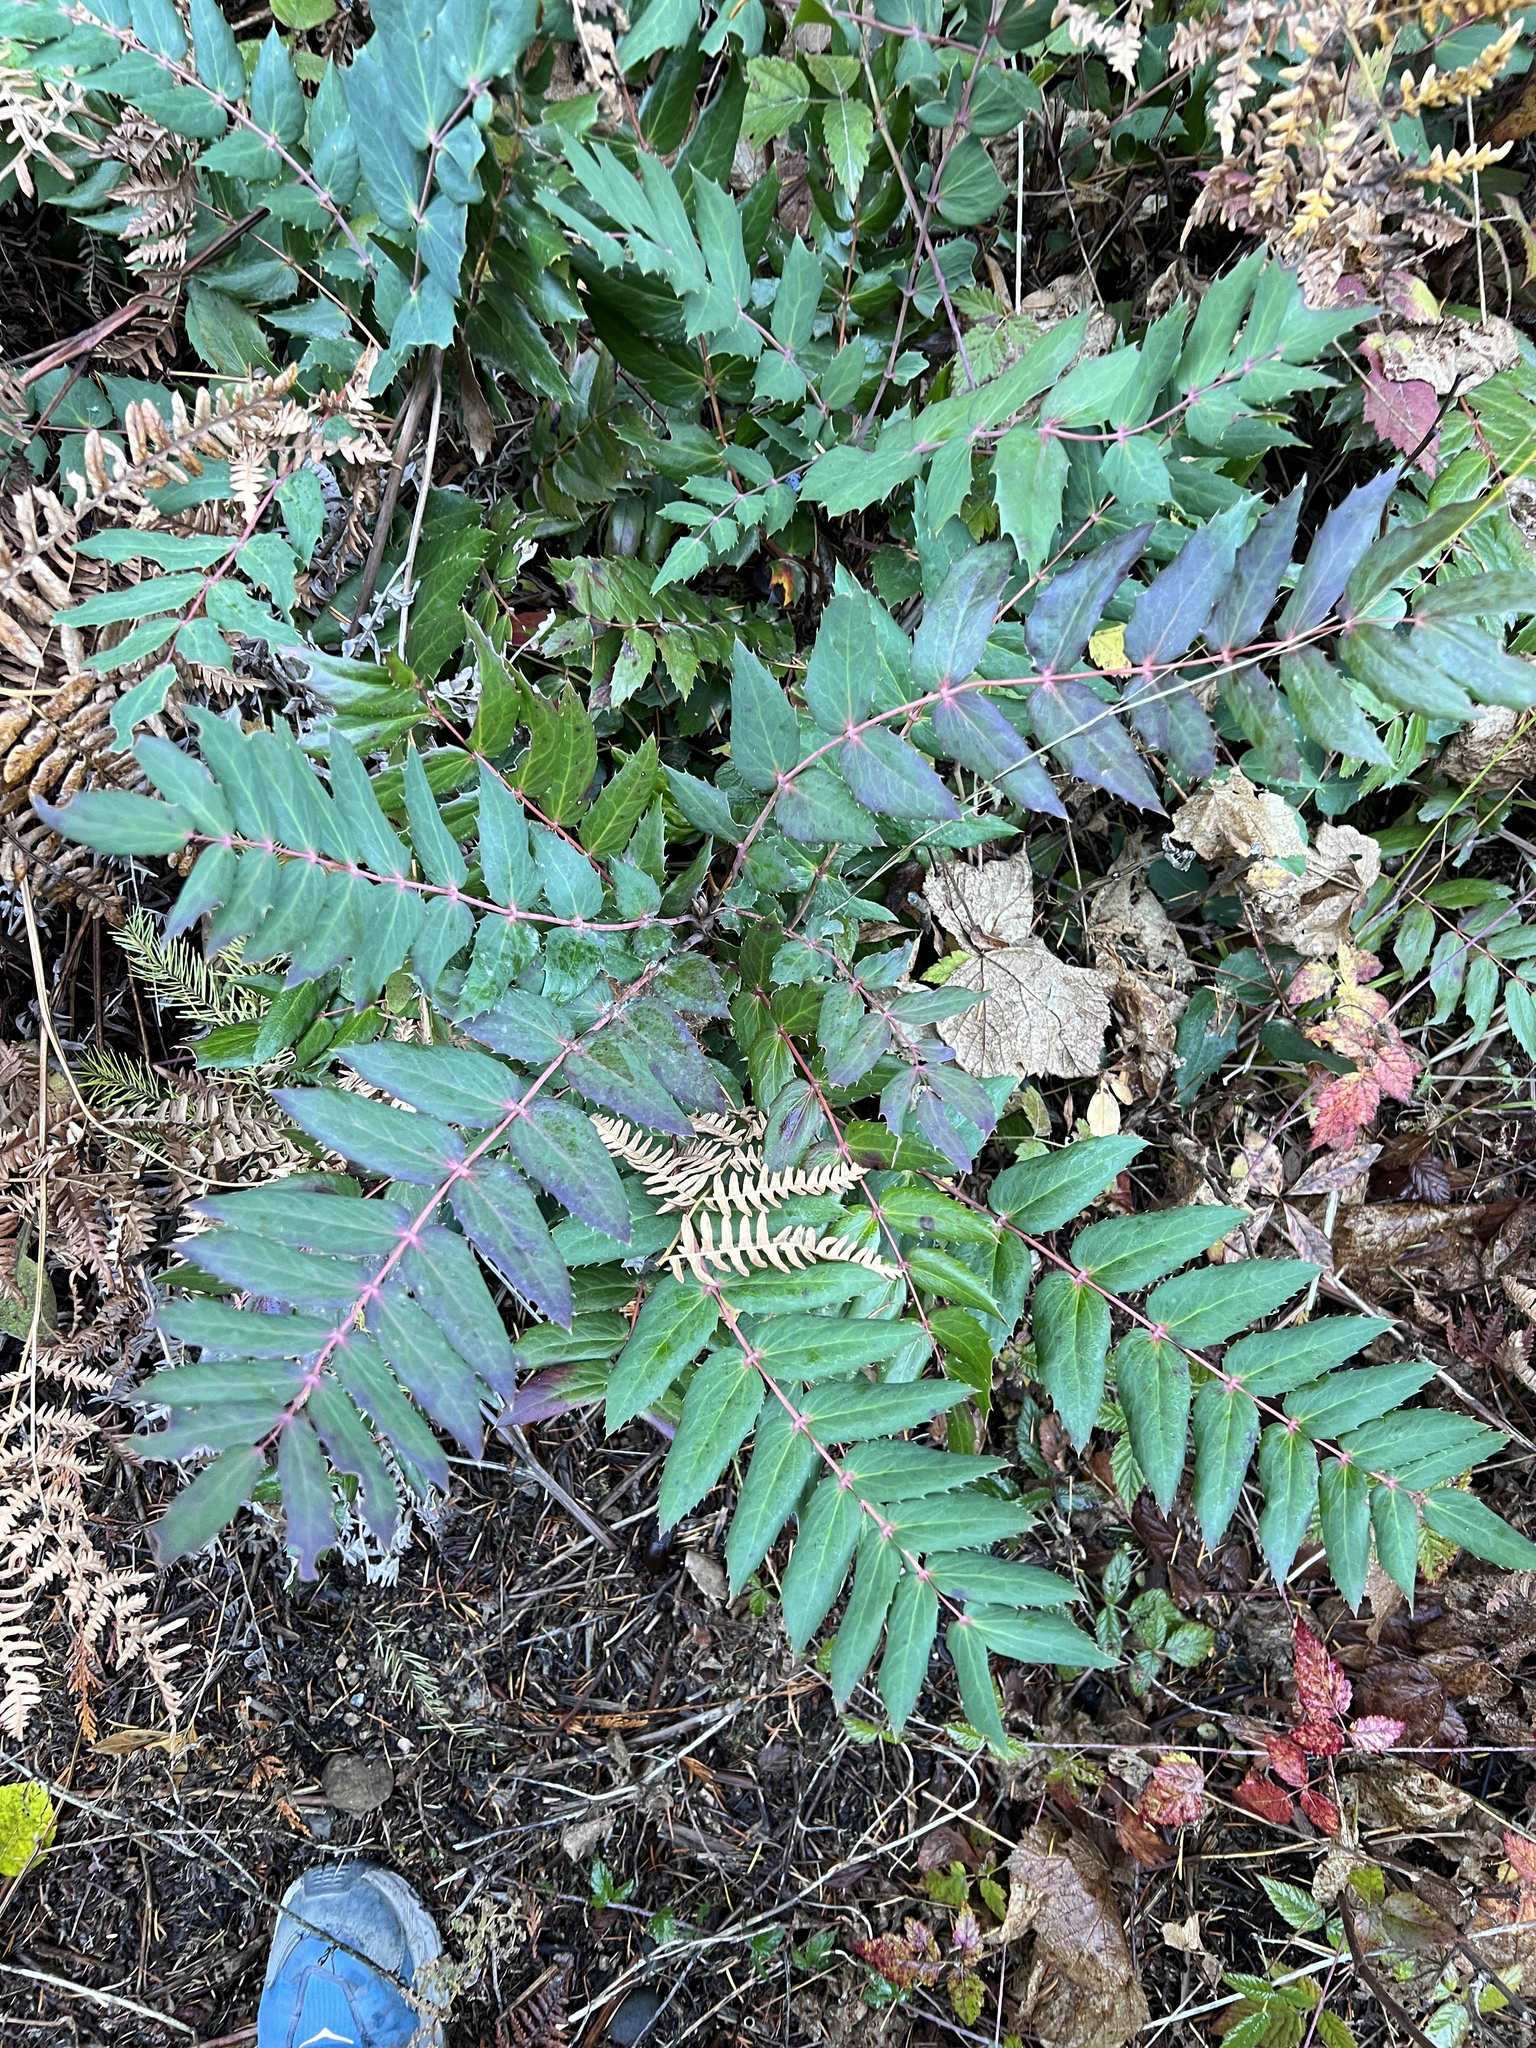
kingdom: Plantae
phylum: Tracheophyta
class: Magnoliopsida
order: Ranunculales
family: Berberidaceae
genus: Mahonia
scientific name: Mahonia nervosa
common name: Cascade oregon-grape
